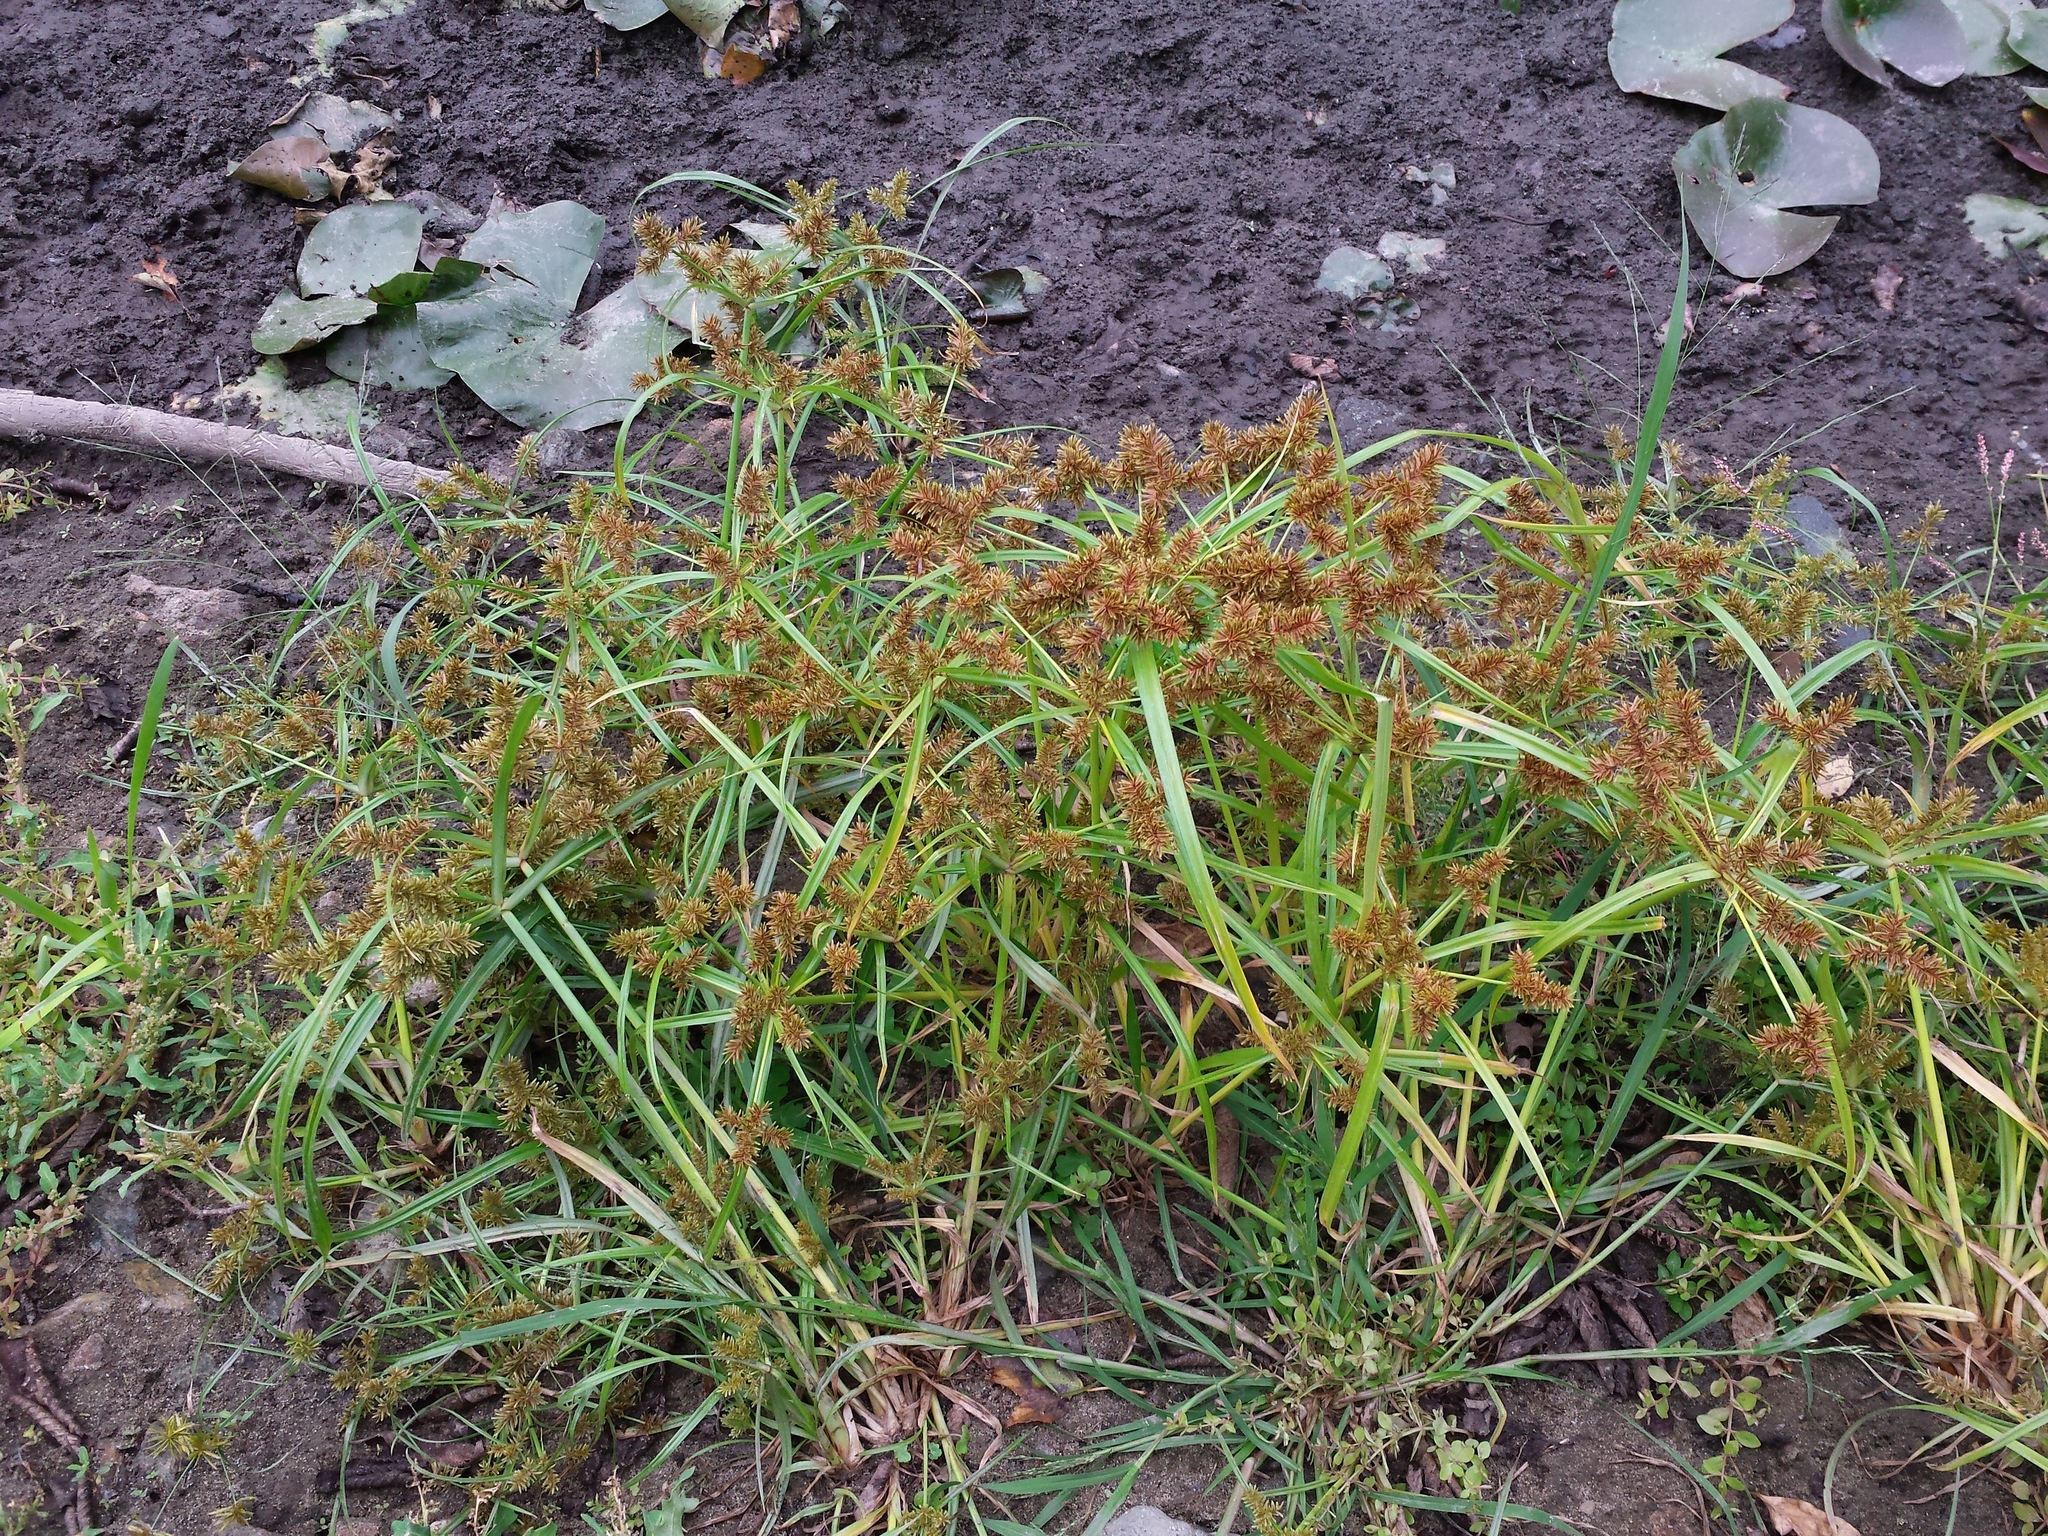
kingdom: Plantae
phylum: Tracheophyta
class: Liliopsida
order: Poales
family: Cyperaceae
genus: Cyperus
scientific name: Cyperus erythrorhizos
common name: Red-root flat sedge
